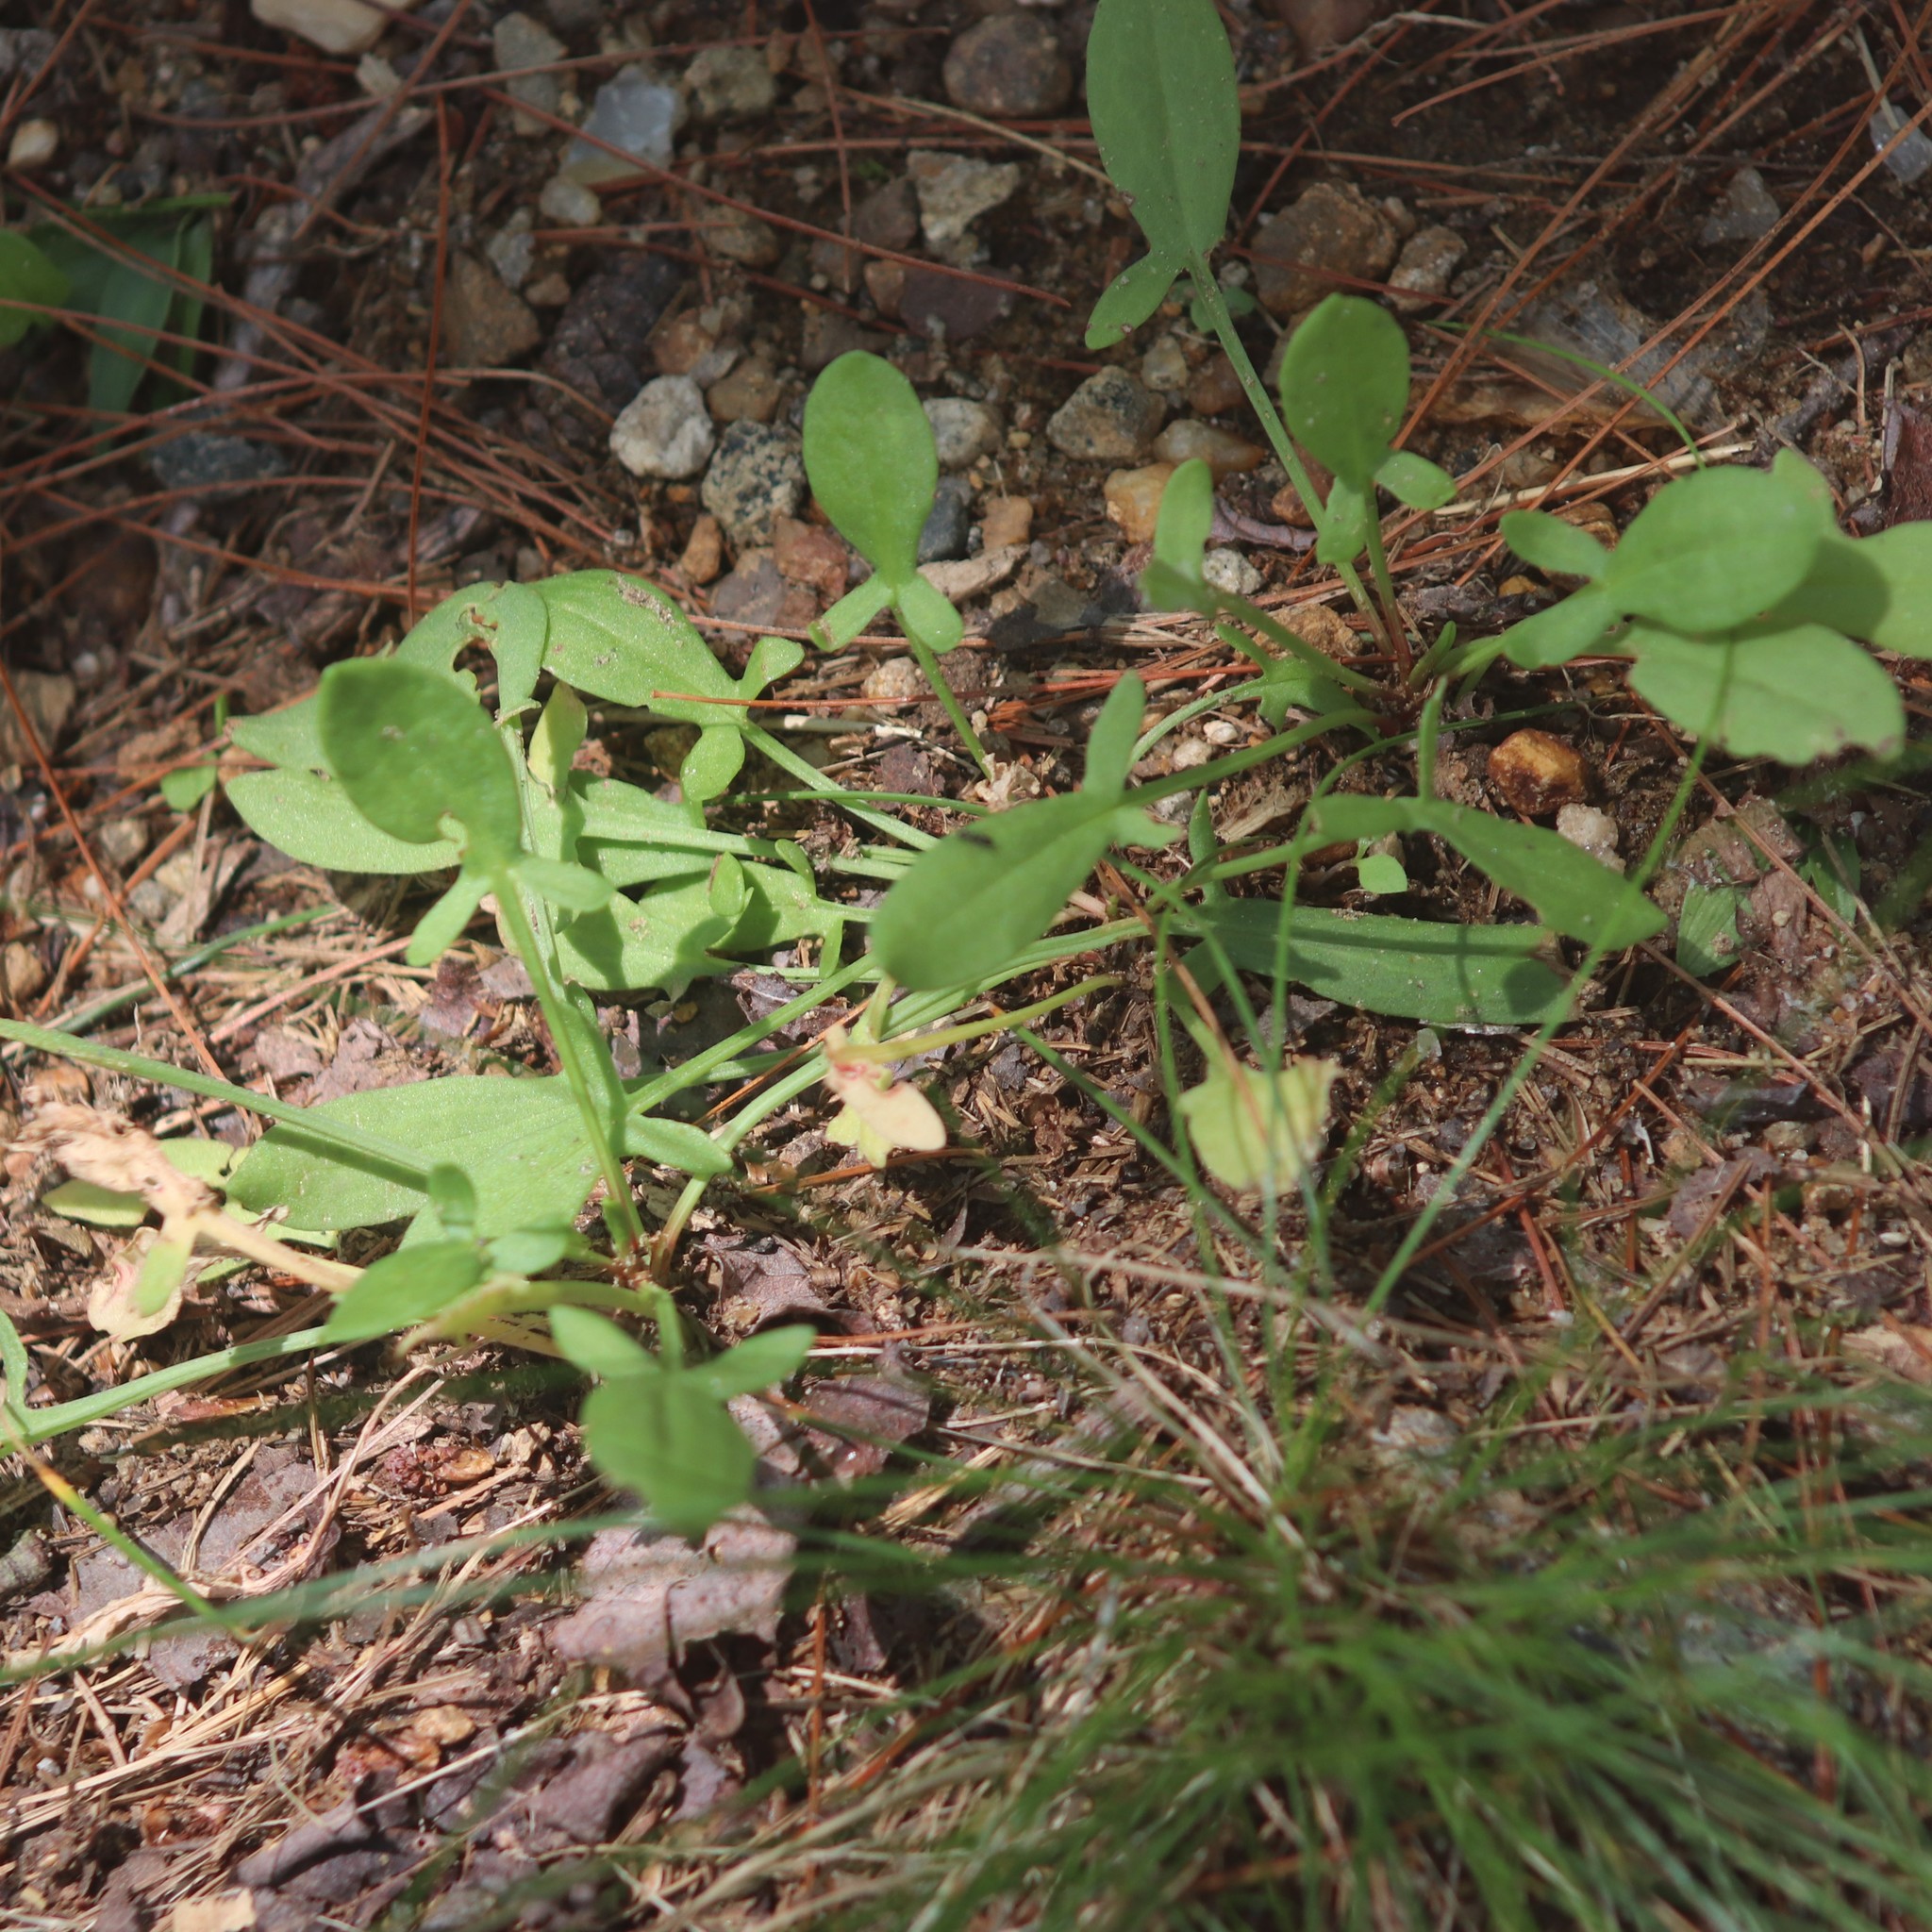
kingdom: Plantae
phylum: Tracheophyta
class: Magnoliopsida
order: Caryophyllales
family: Polygonaceae
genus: Rumex
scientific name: Rumex acetosella
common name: Common sheep sorrel
